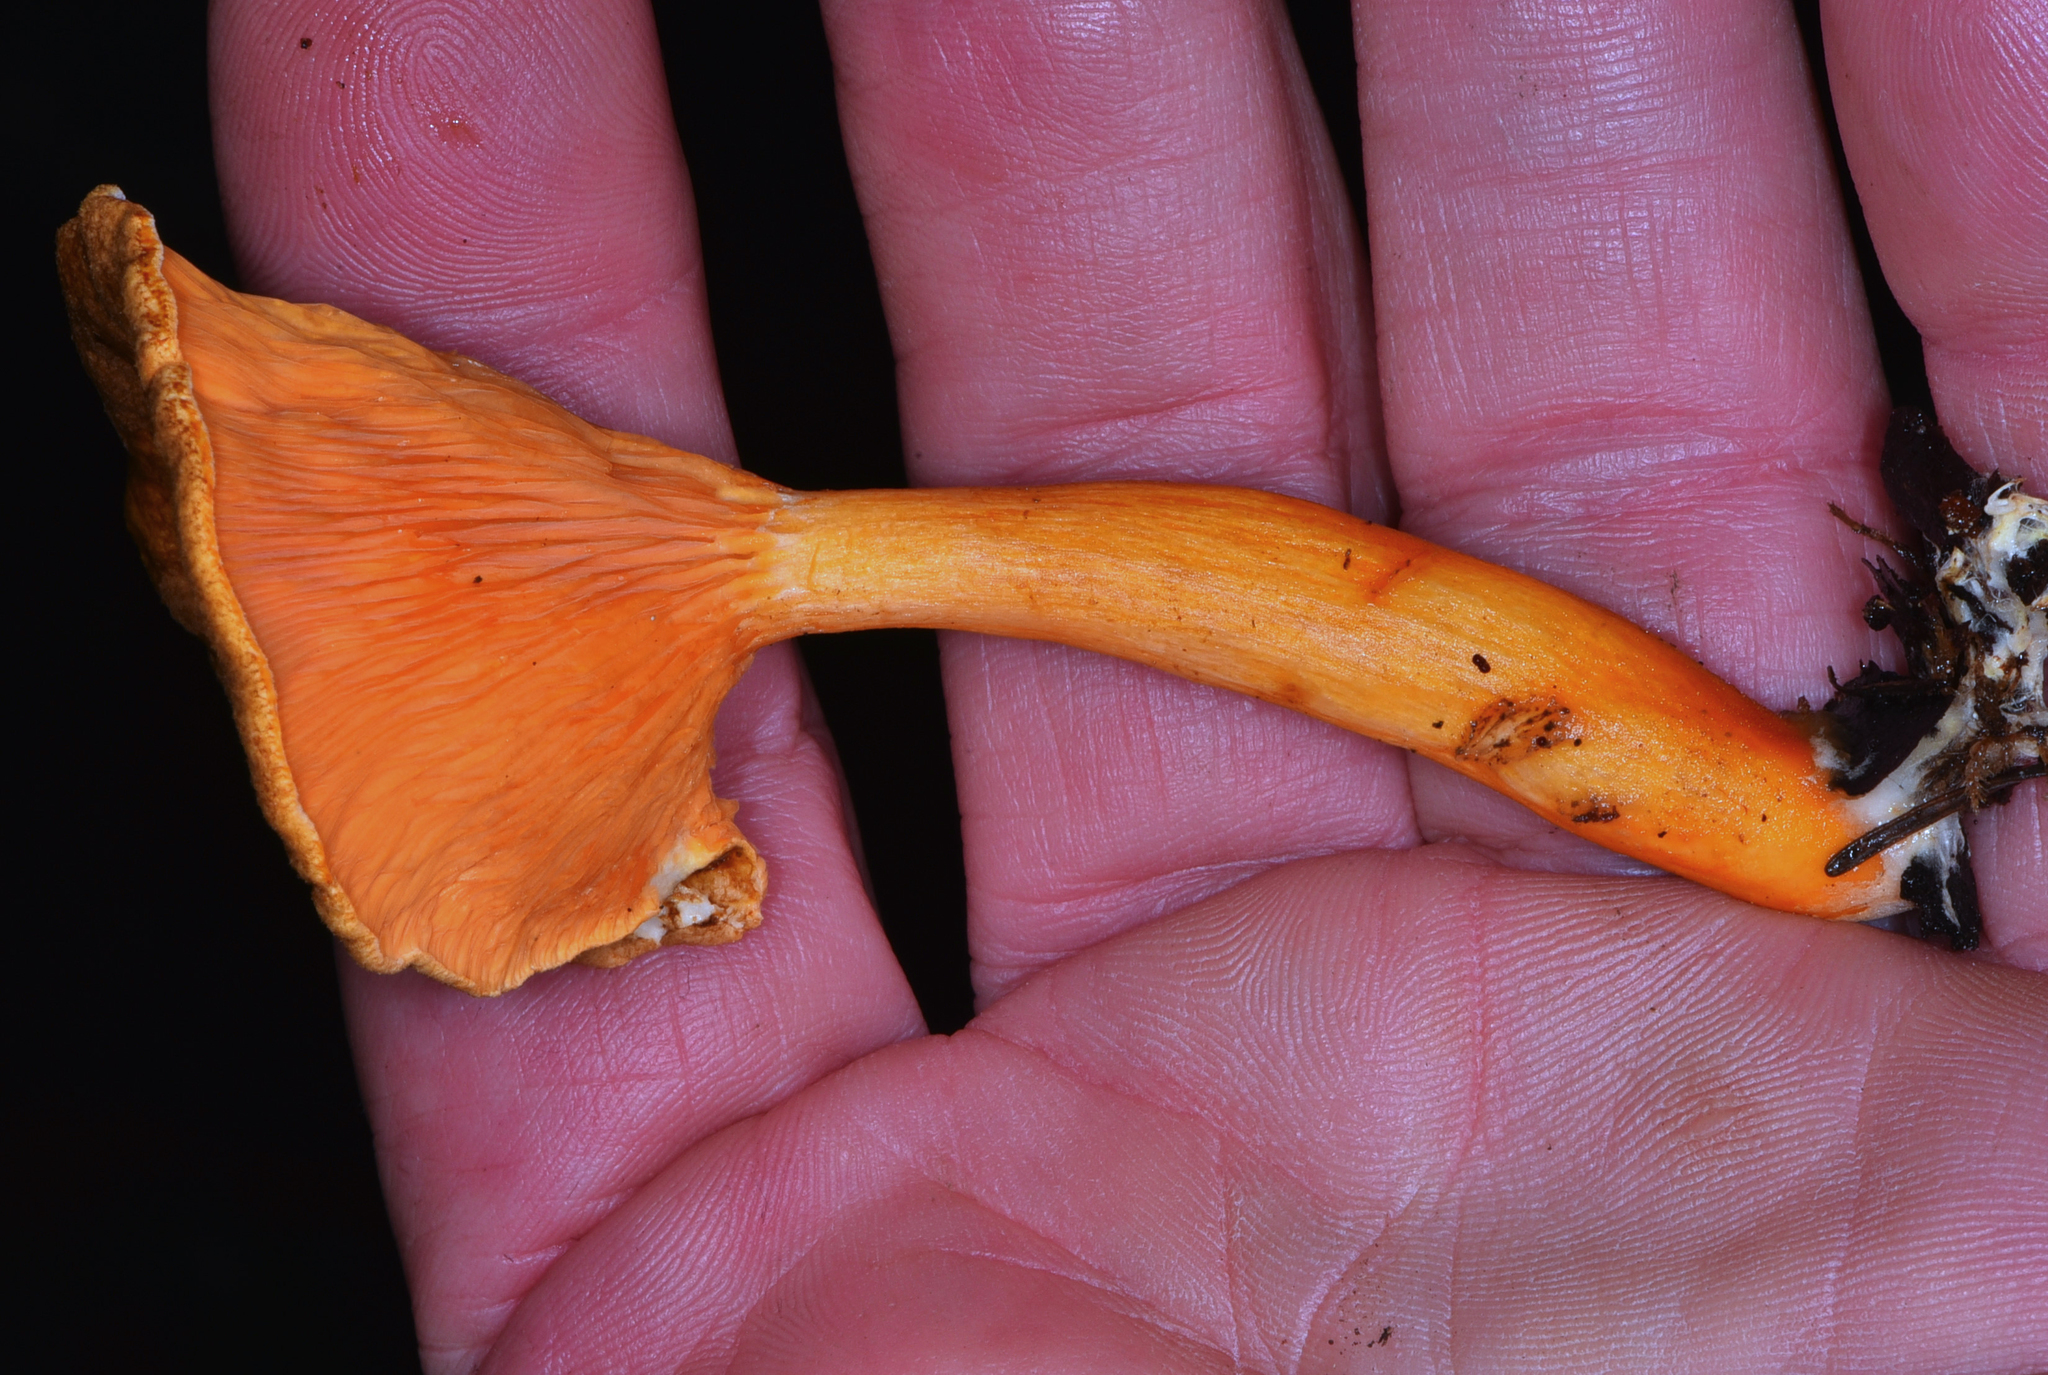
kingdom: Fungi
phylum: Basidiomycota
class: Agaricomycetes
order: Boletales
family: Hygrophoropsidaceae
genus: Hygrophoropsis
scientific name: Hygrophoropsis aurantiaca
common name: False chanterelle
